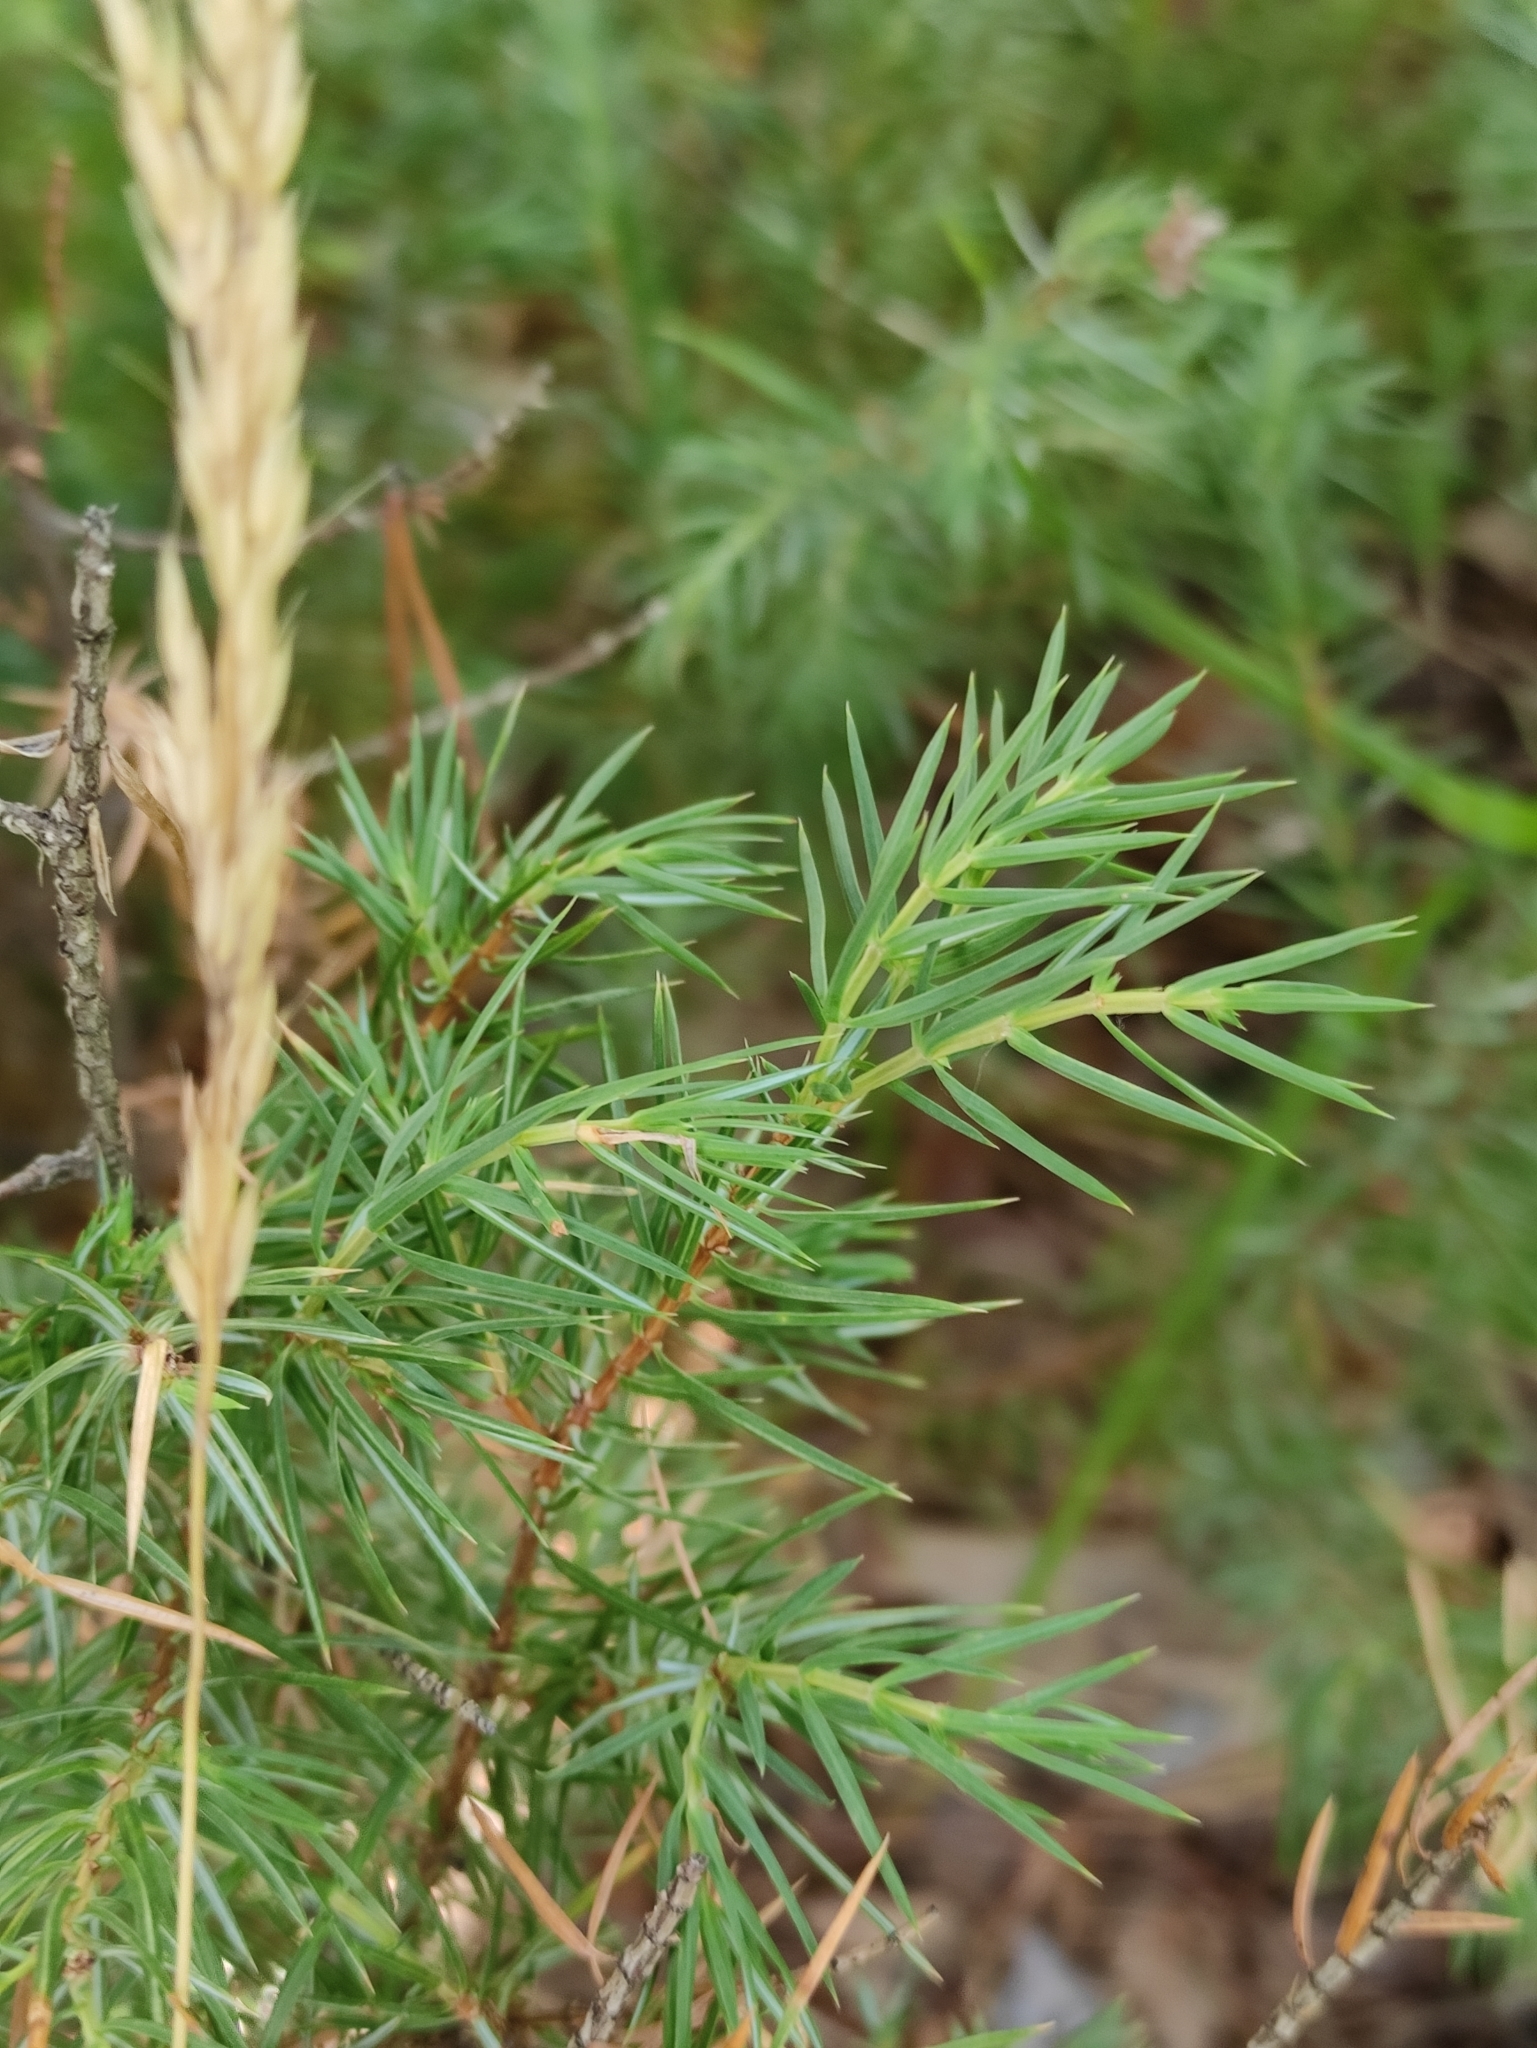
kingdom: Plantae
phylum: Tracheophyta
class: Pinopsida
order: Pinales
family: Cupressaceae
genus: Juniperus
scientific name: Juniperus communis
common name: Common juniper
